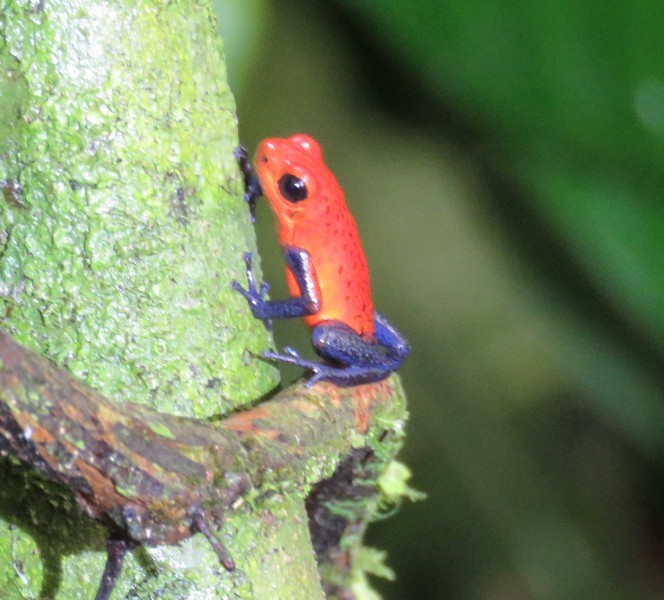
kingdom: Animalia
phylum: Chordata
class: Amphibia
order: Anura
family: Dendrobatidae
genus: Oophaga
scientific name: Oophaga pumilio
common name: Flaming poison frog
